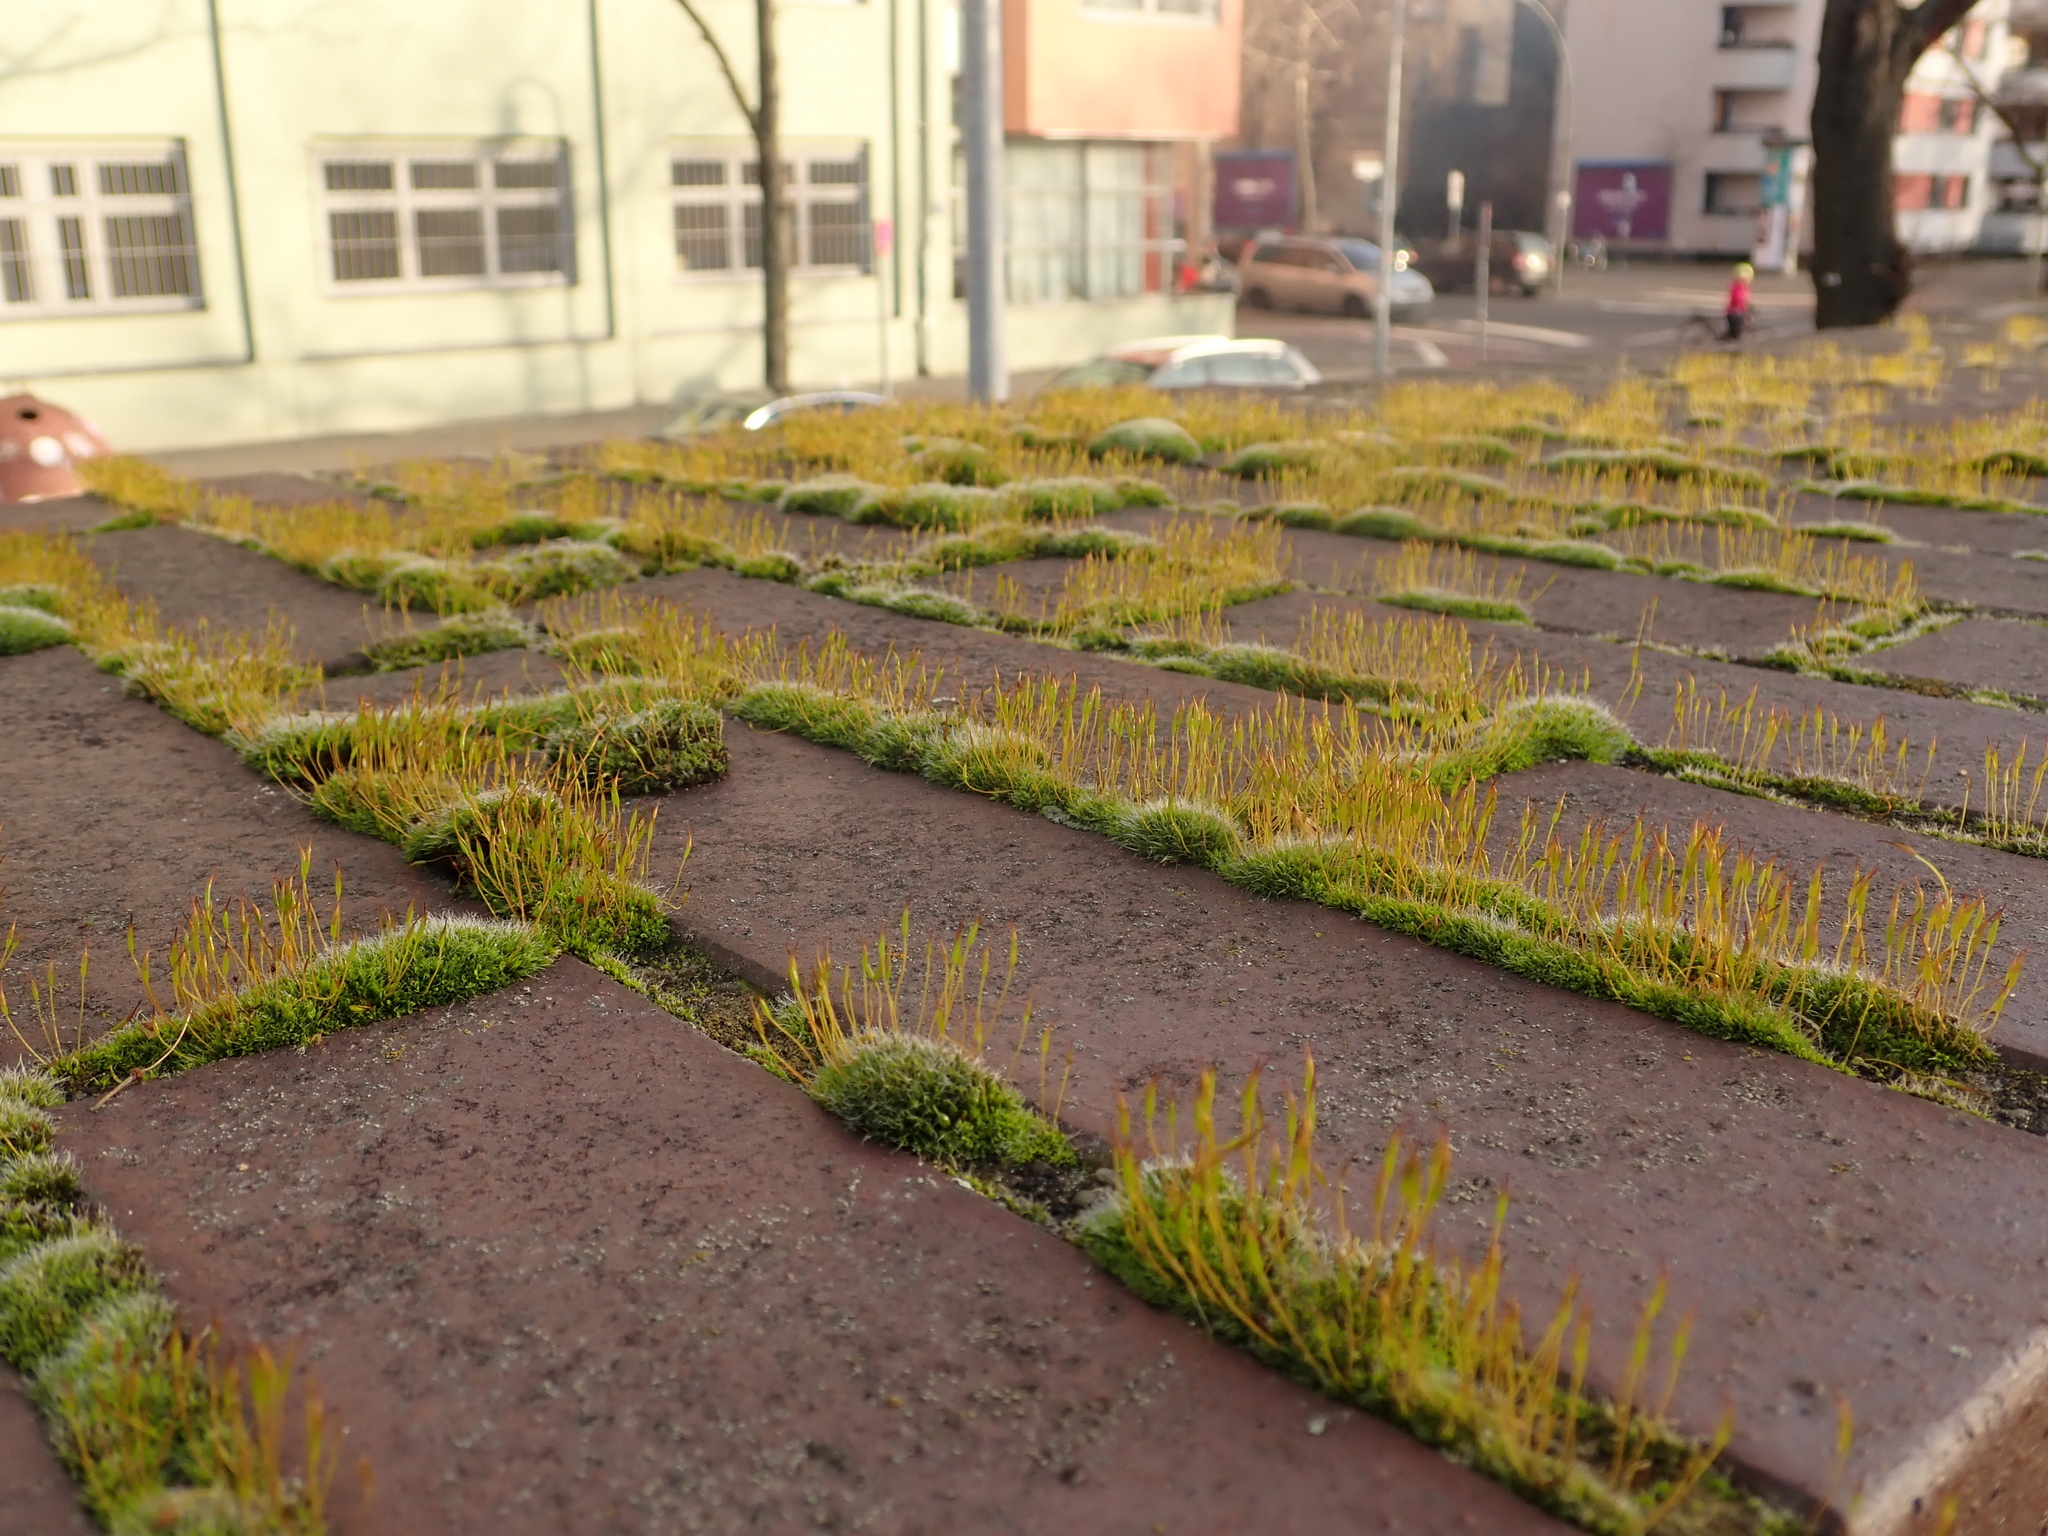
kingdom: Plantae
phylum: Bryophyta
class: Bryopsida
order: Pottiales
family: Pottiaceae
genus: Tortula
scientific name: Tortula muralis
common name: Wall screw-moss
